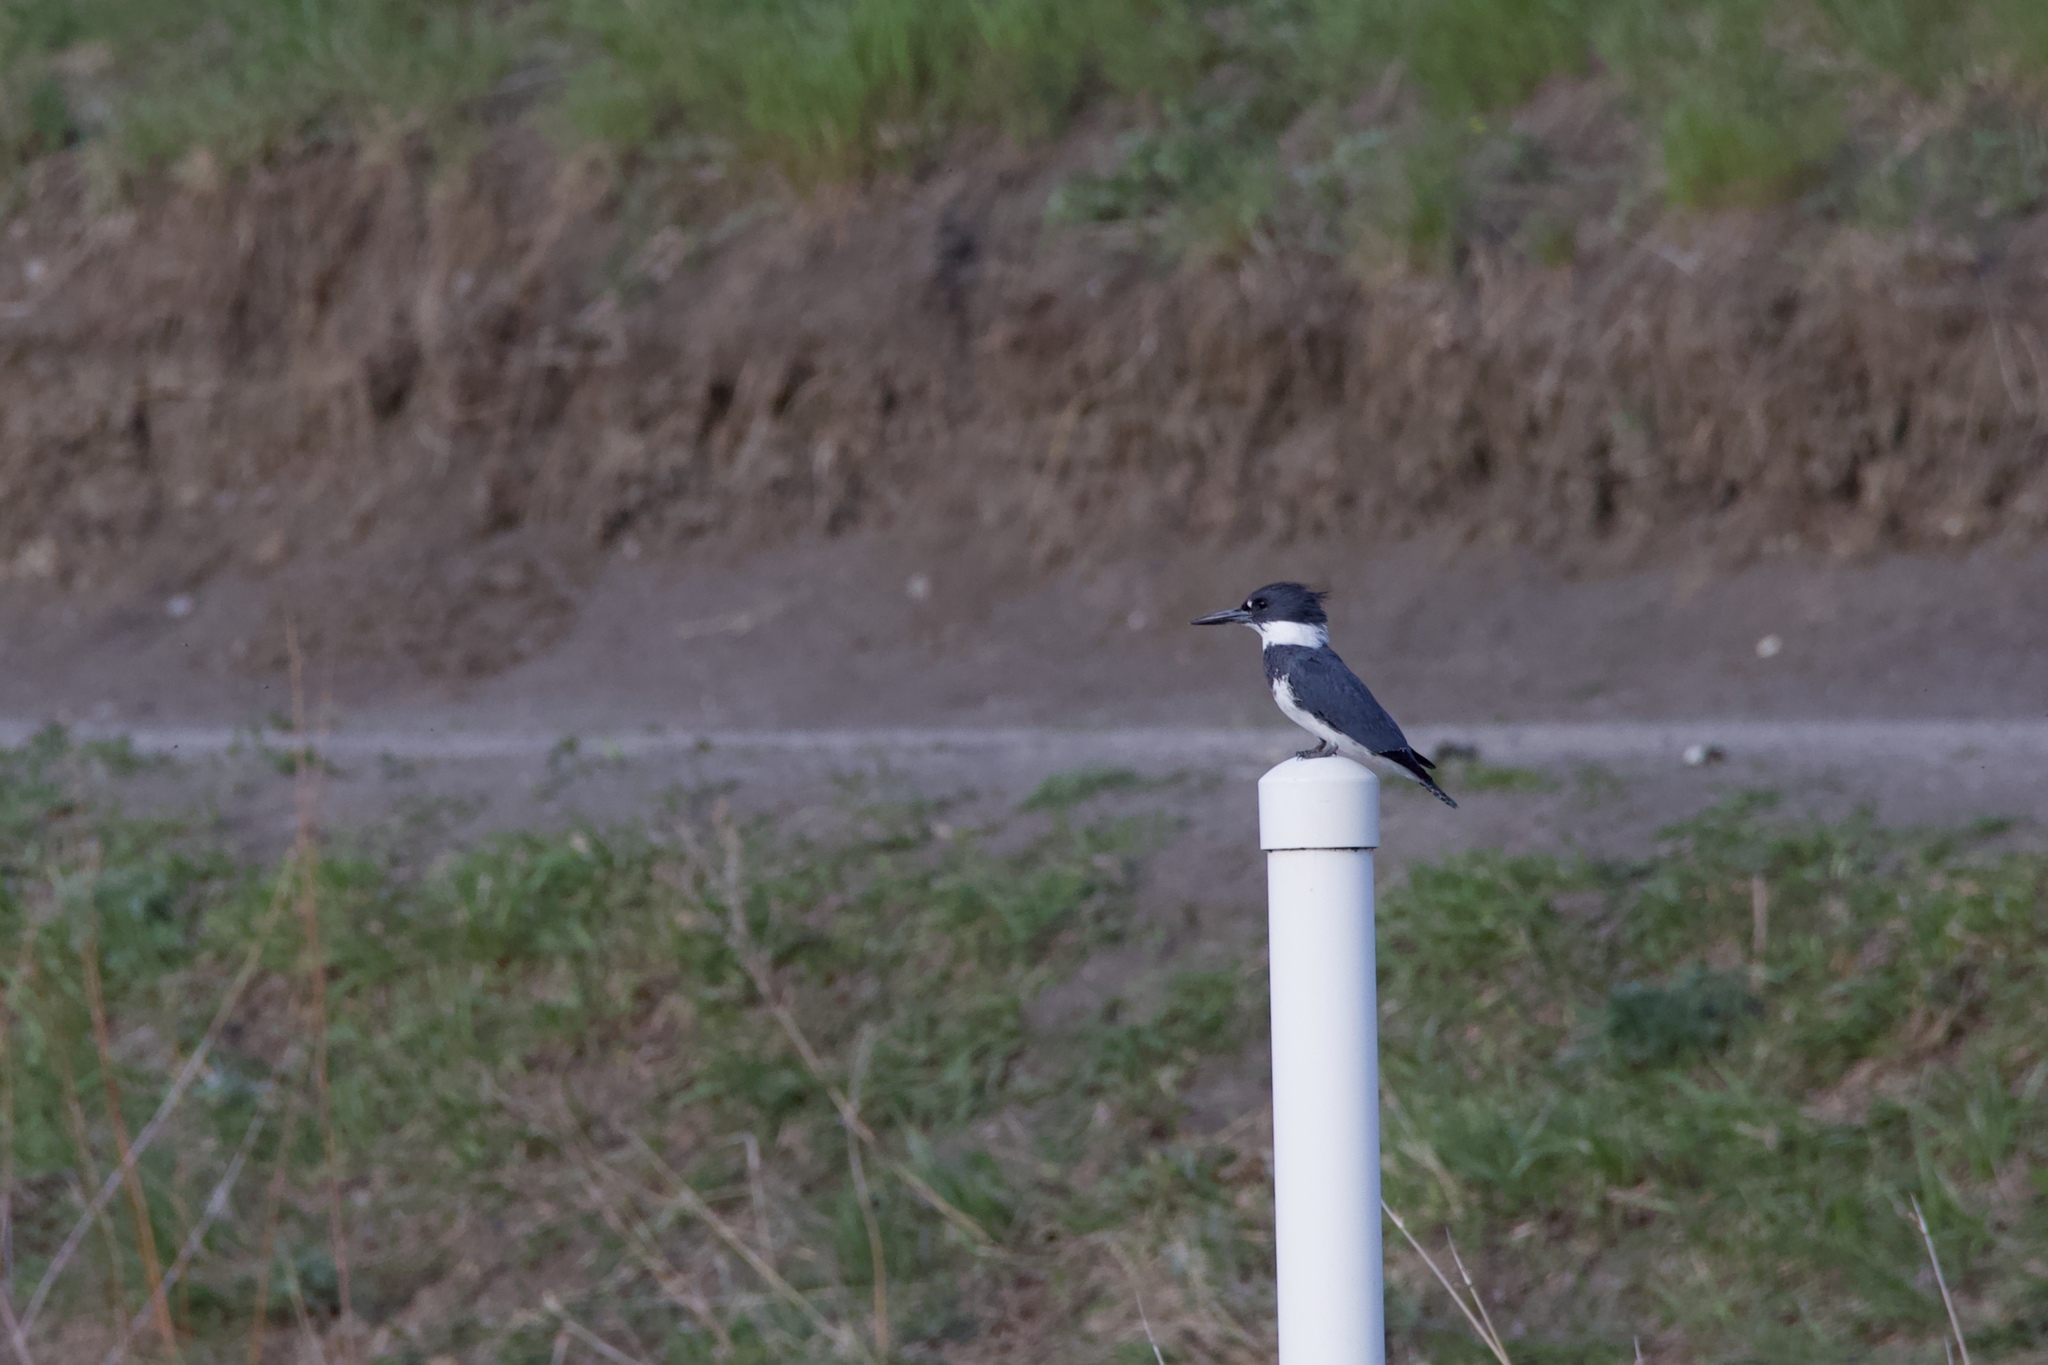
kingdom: Animalia
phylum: Chordata
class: Aves
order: Coraciiformes
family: Alcedinidae
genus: Megaceryle
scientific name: Megaceryle alcyon
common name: Belted kingfisher
